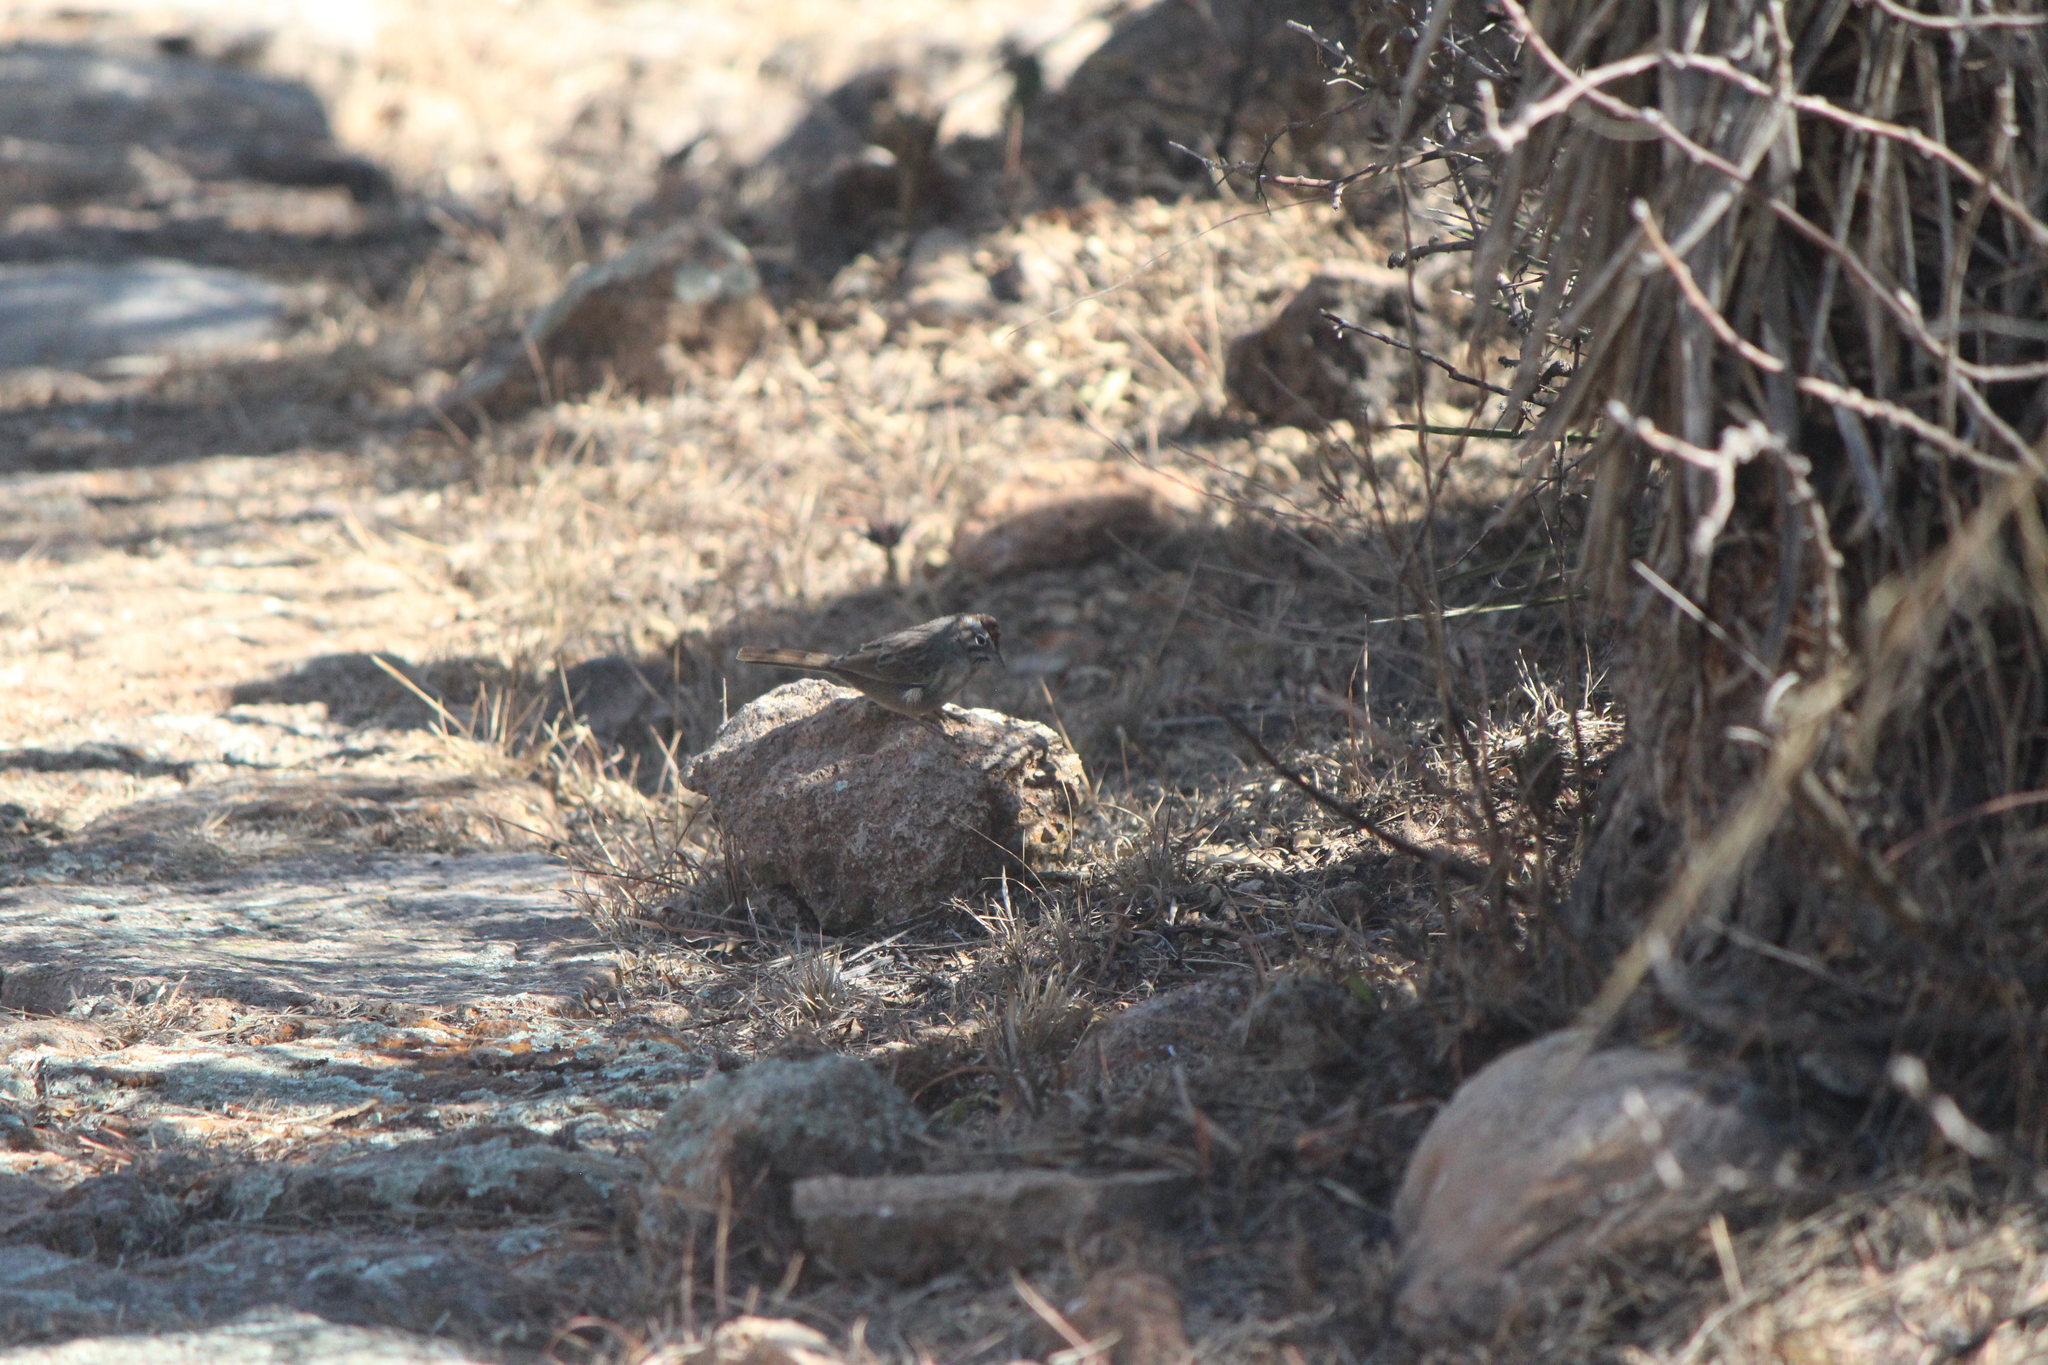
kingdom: Animalia
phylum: Chordata
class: Aves
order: Passeriformes
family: Passerellidae
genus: Aimophila
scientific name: Aimophila ruficeps
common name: Rufous-crowned sparrow
